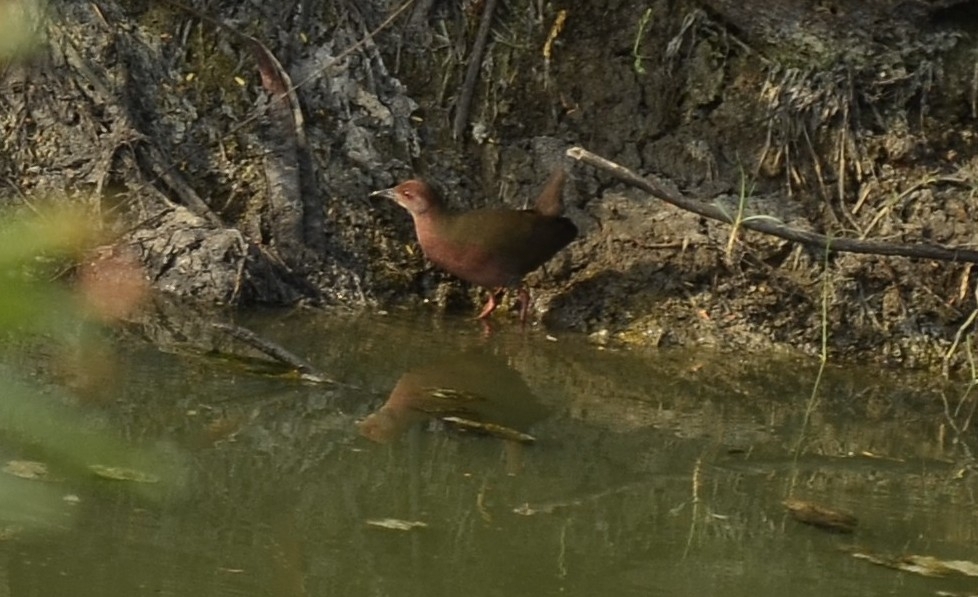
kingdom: Animalia
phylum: Chordata
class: Aves
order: Gruiformes
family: Rallidae
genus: Porzana
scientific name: Porzana fusca
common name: Ruddy-breasted crake
